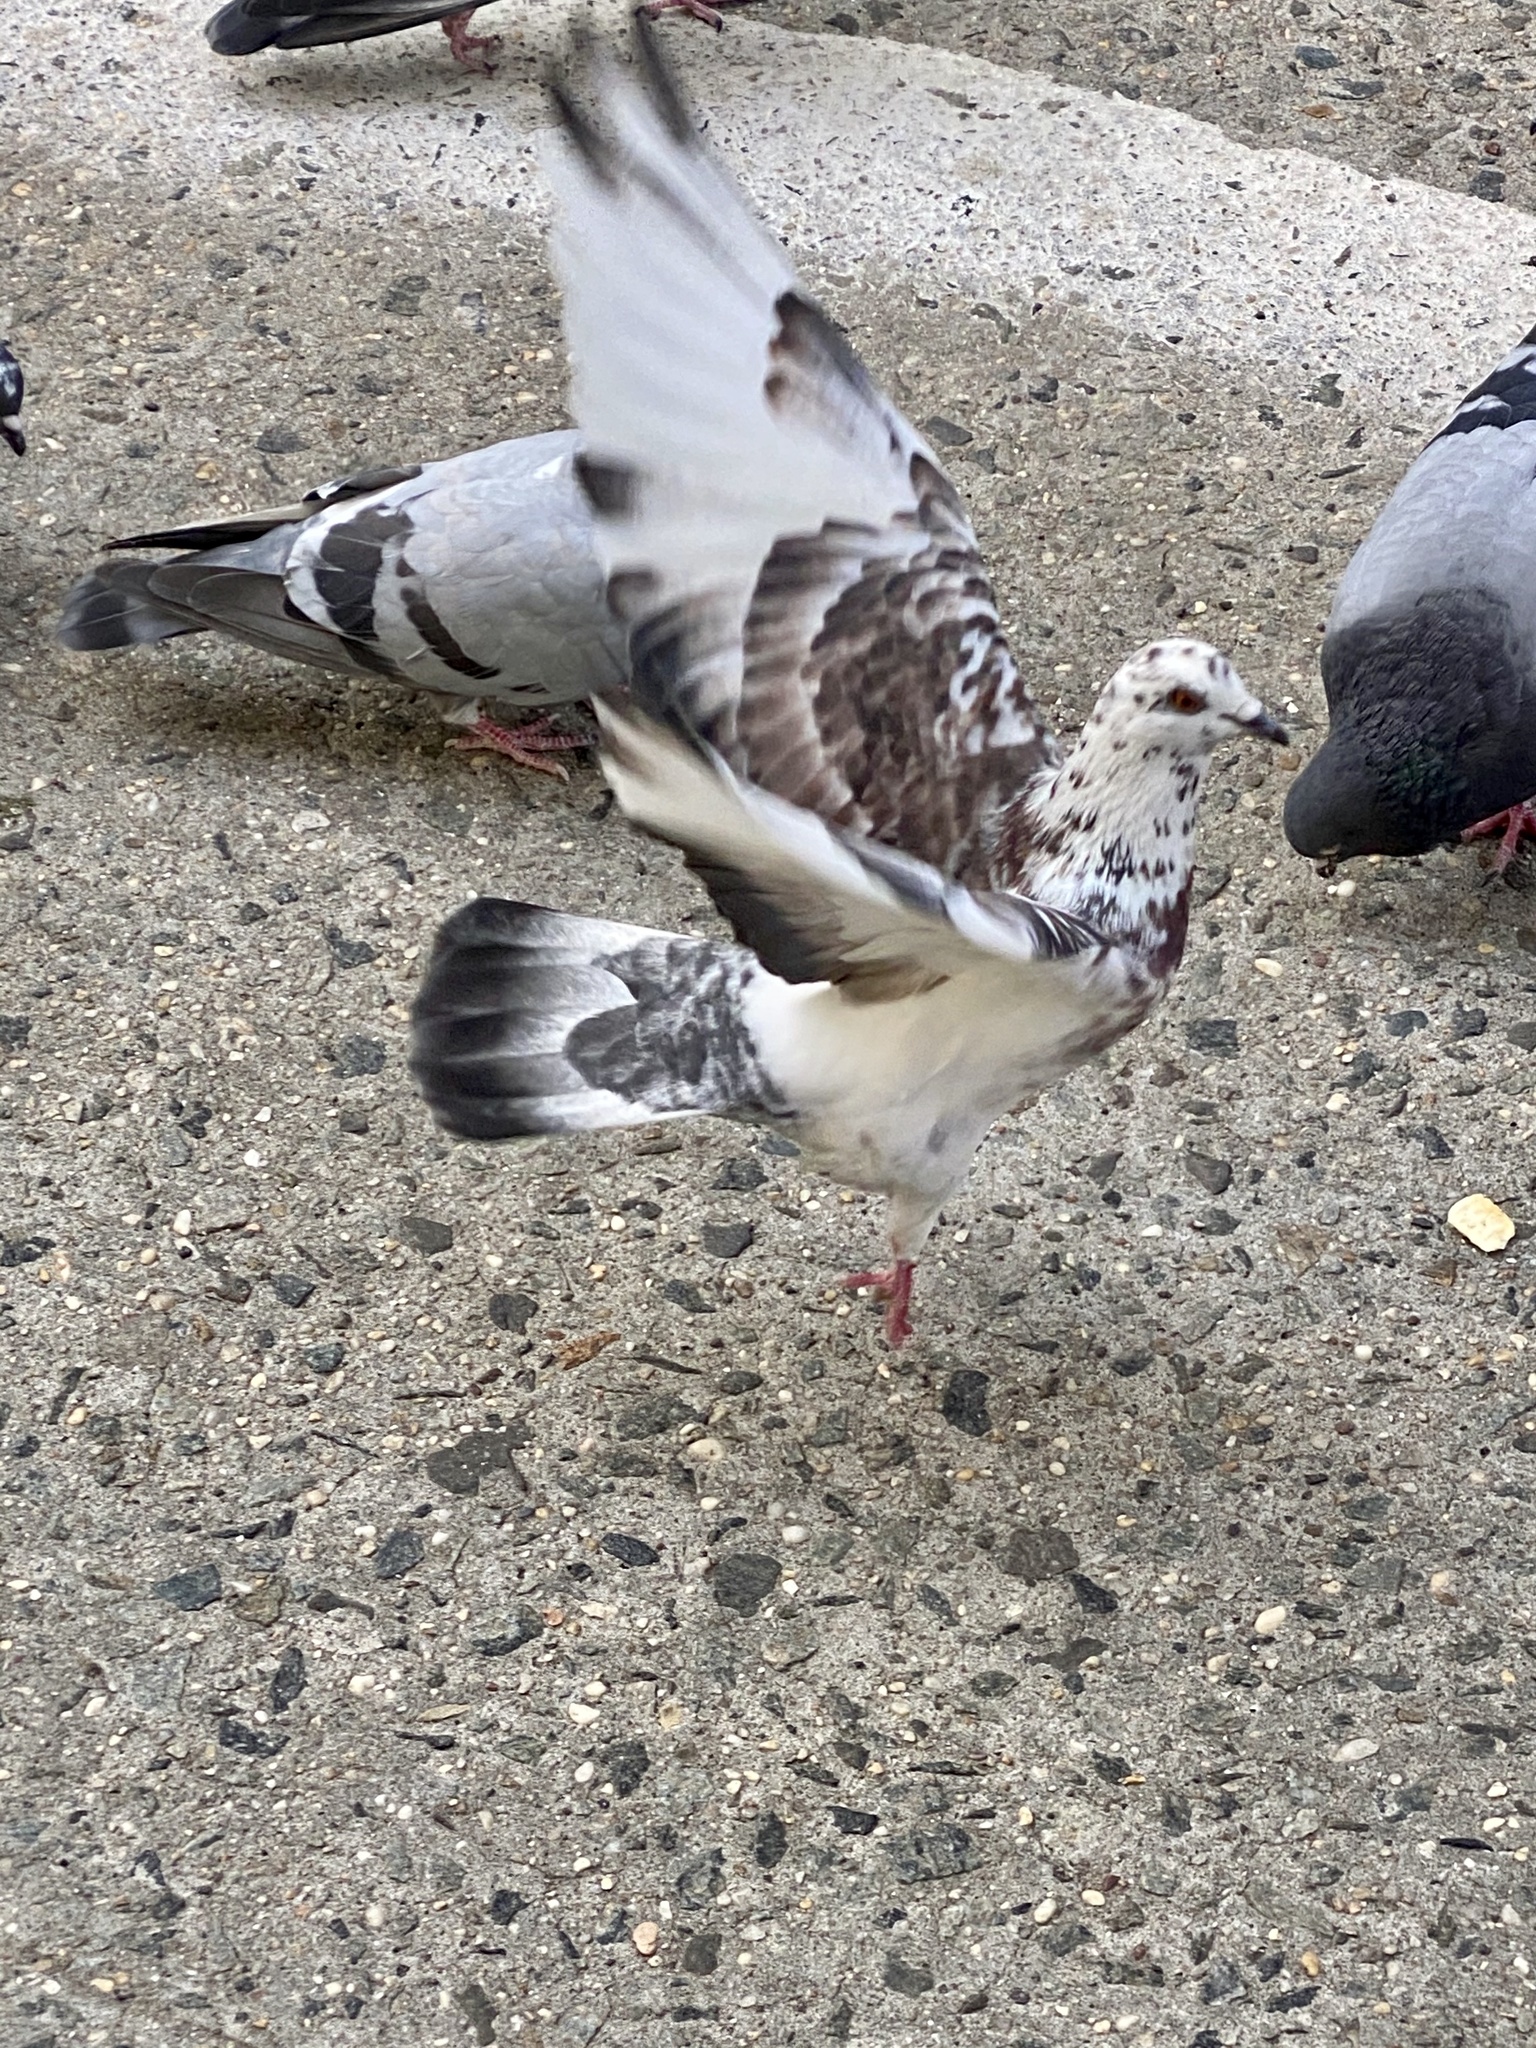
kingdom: Animalia
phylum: Chordata
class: Aves
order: Columbiformes
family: Columbidae
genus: Columba
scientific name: Columba livia
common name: Rock pigeon
